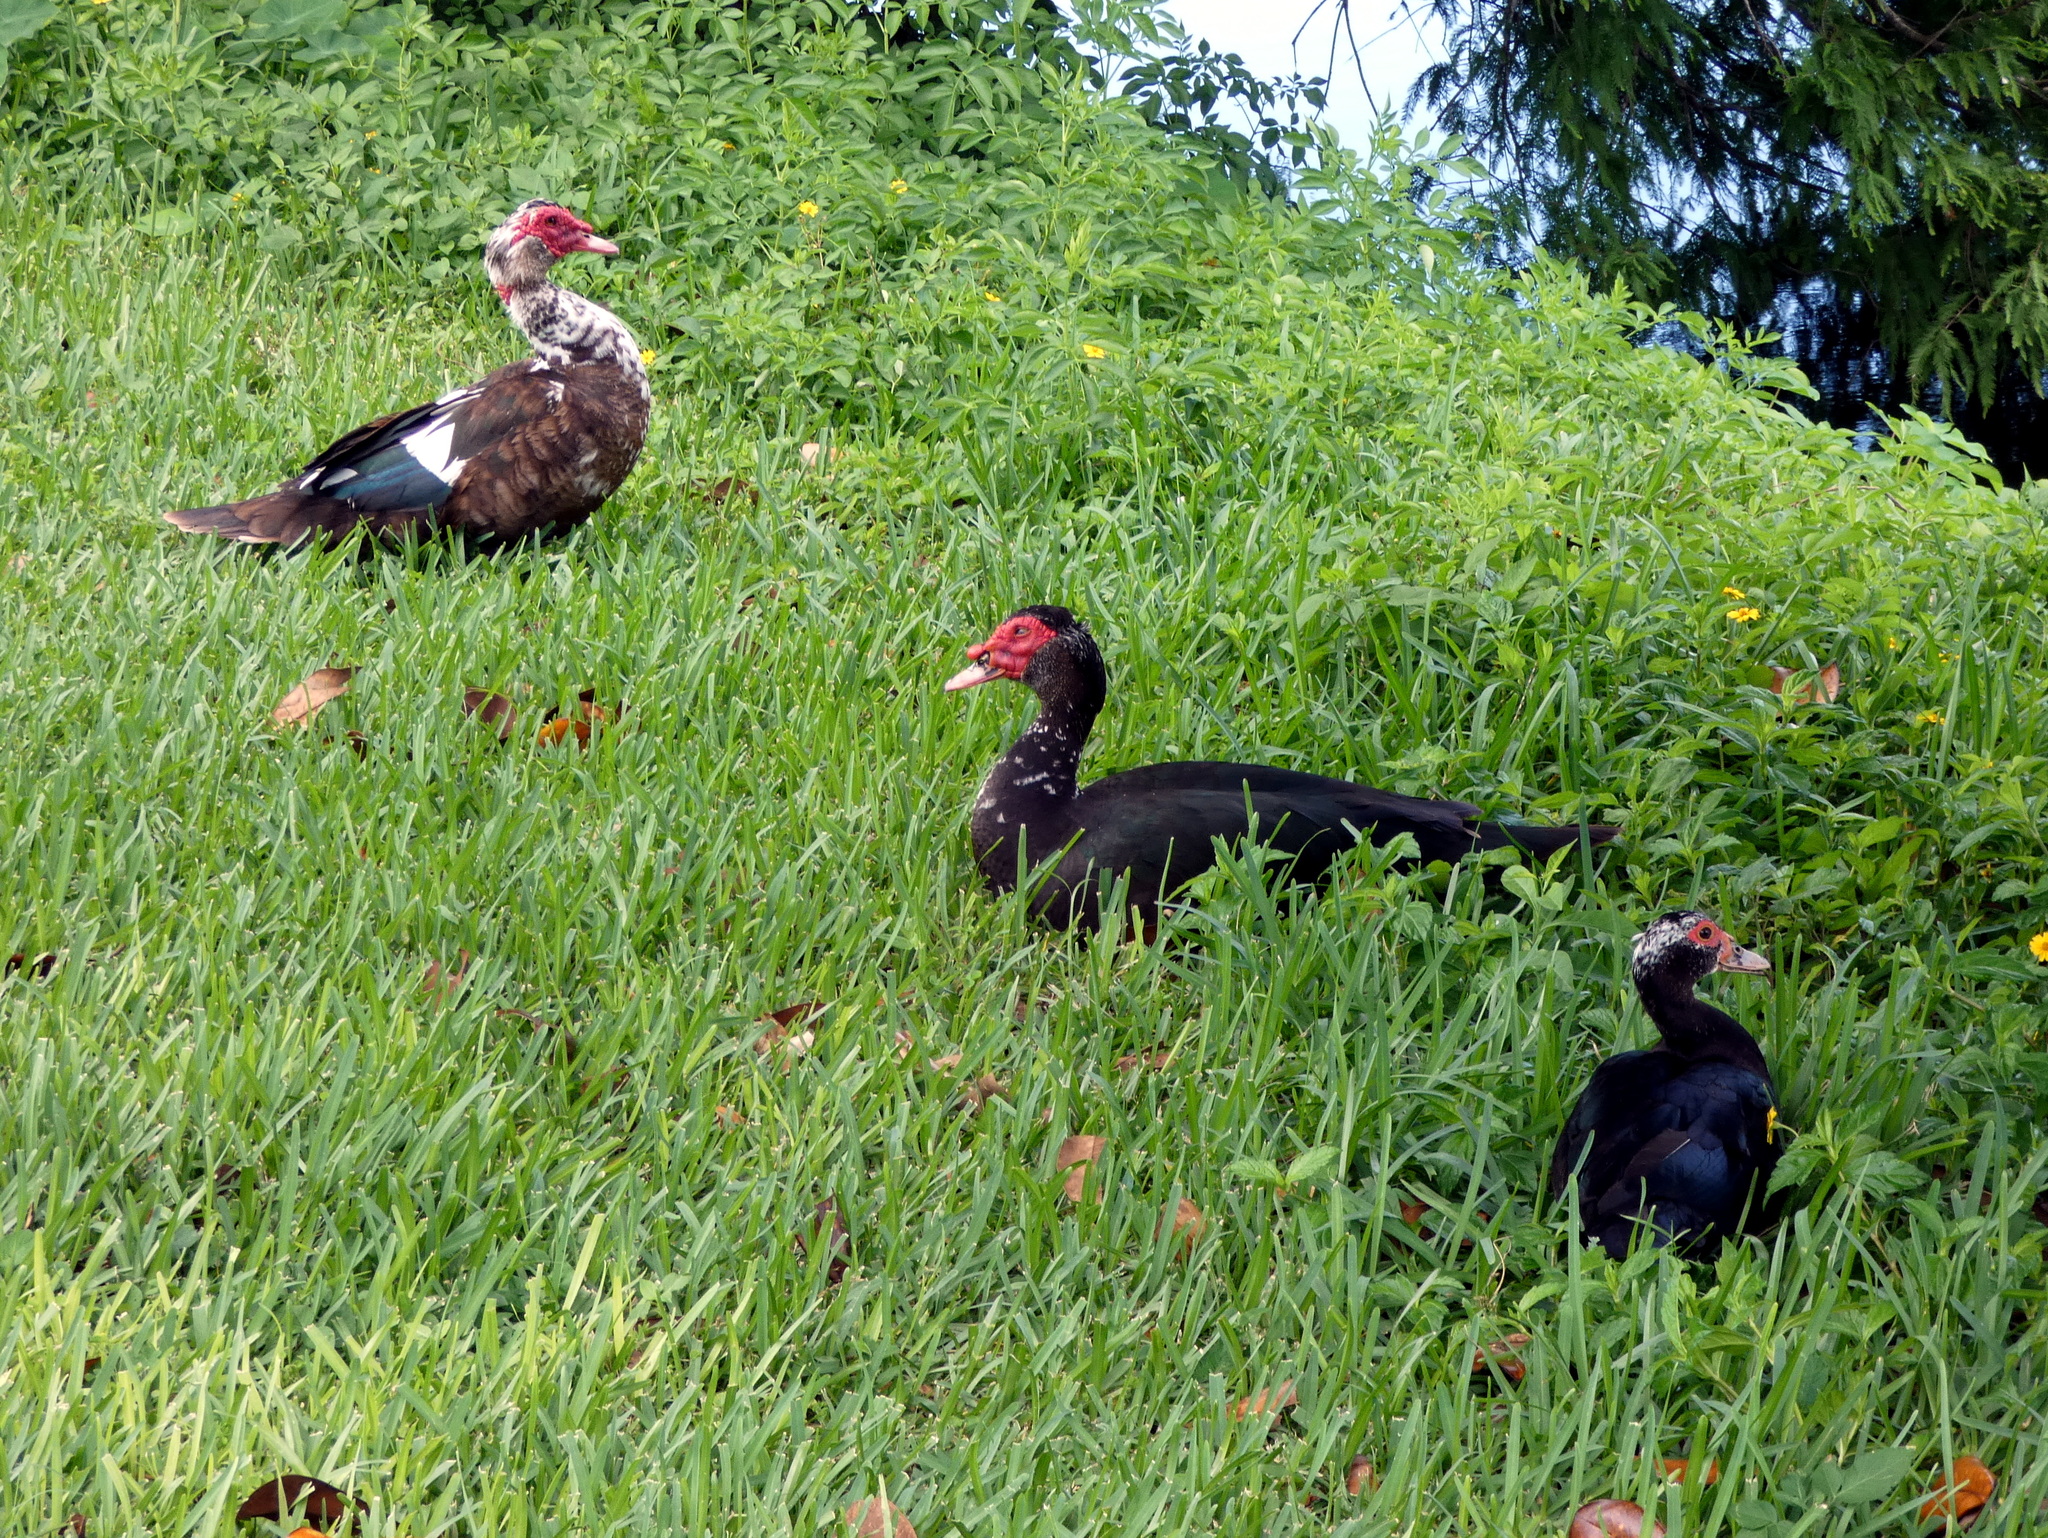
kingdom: Animalia
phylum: Chordata
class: Aves
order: Anseriformes
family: Anatidae
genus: Cairina
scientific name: Cairina moschata
